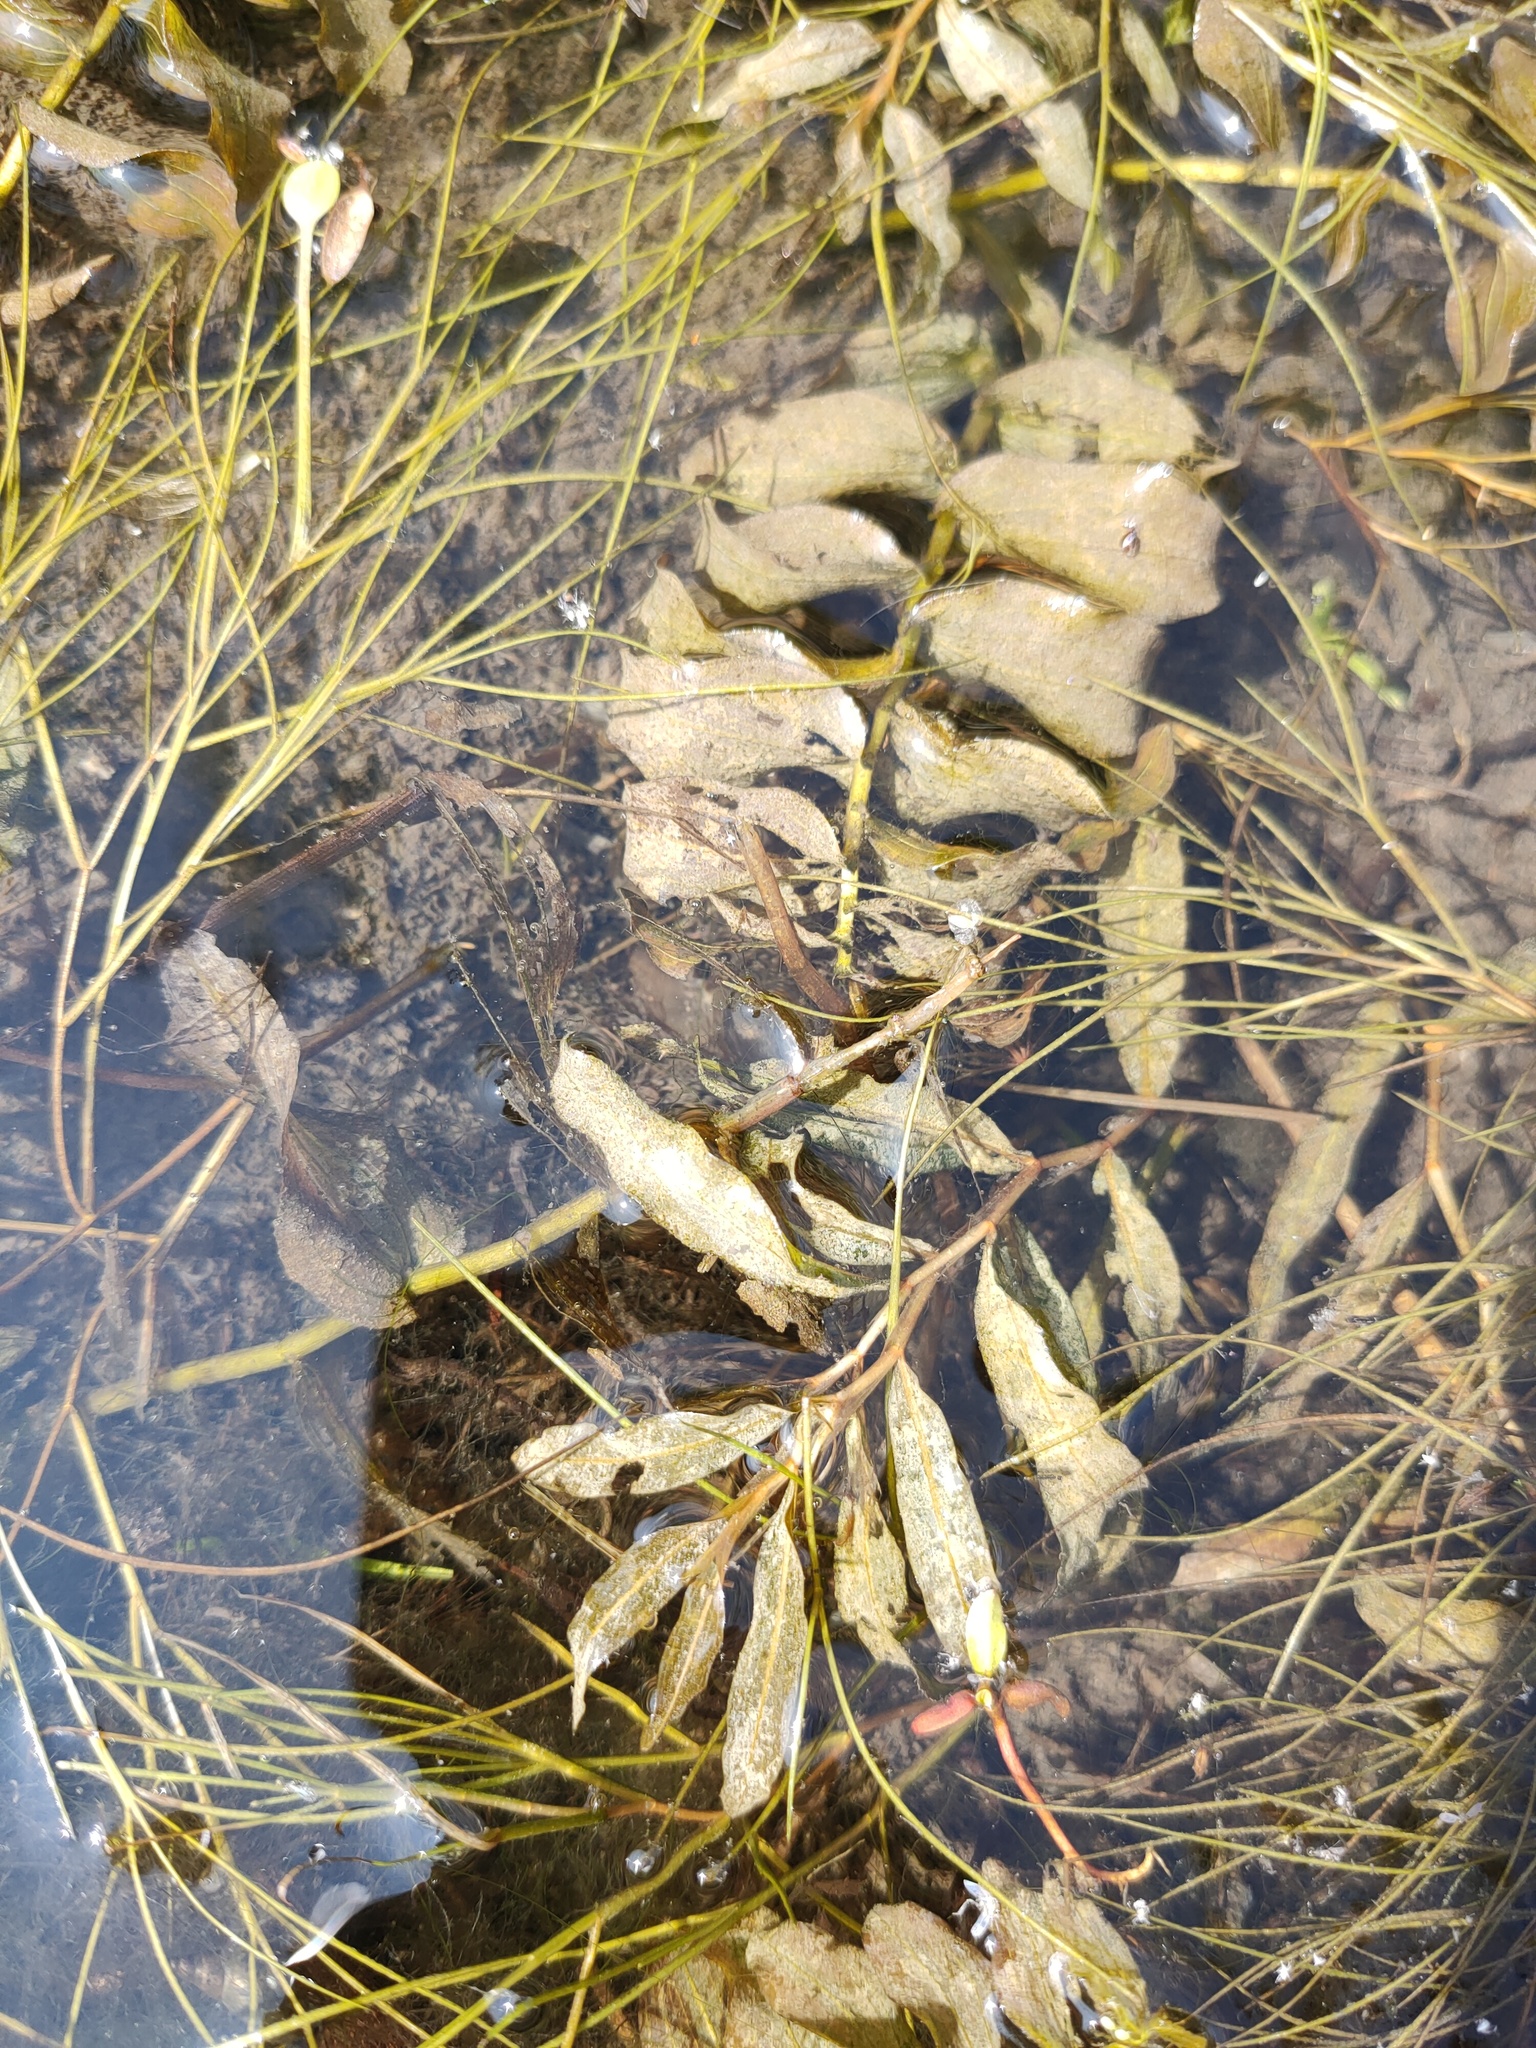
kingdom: Plantae
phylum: Tracheophyta
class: Liliopsida
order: Alismatales
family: Potamogetonaceae
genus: Potamogeton
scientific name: Potamogeton praelongus
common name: Long-stalked pondweed
